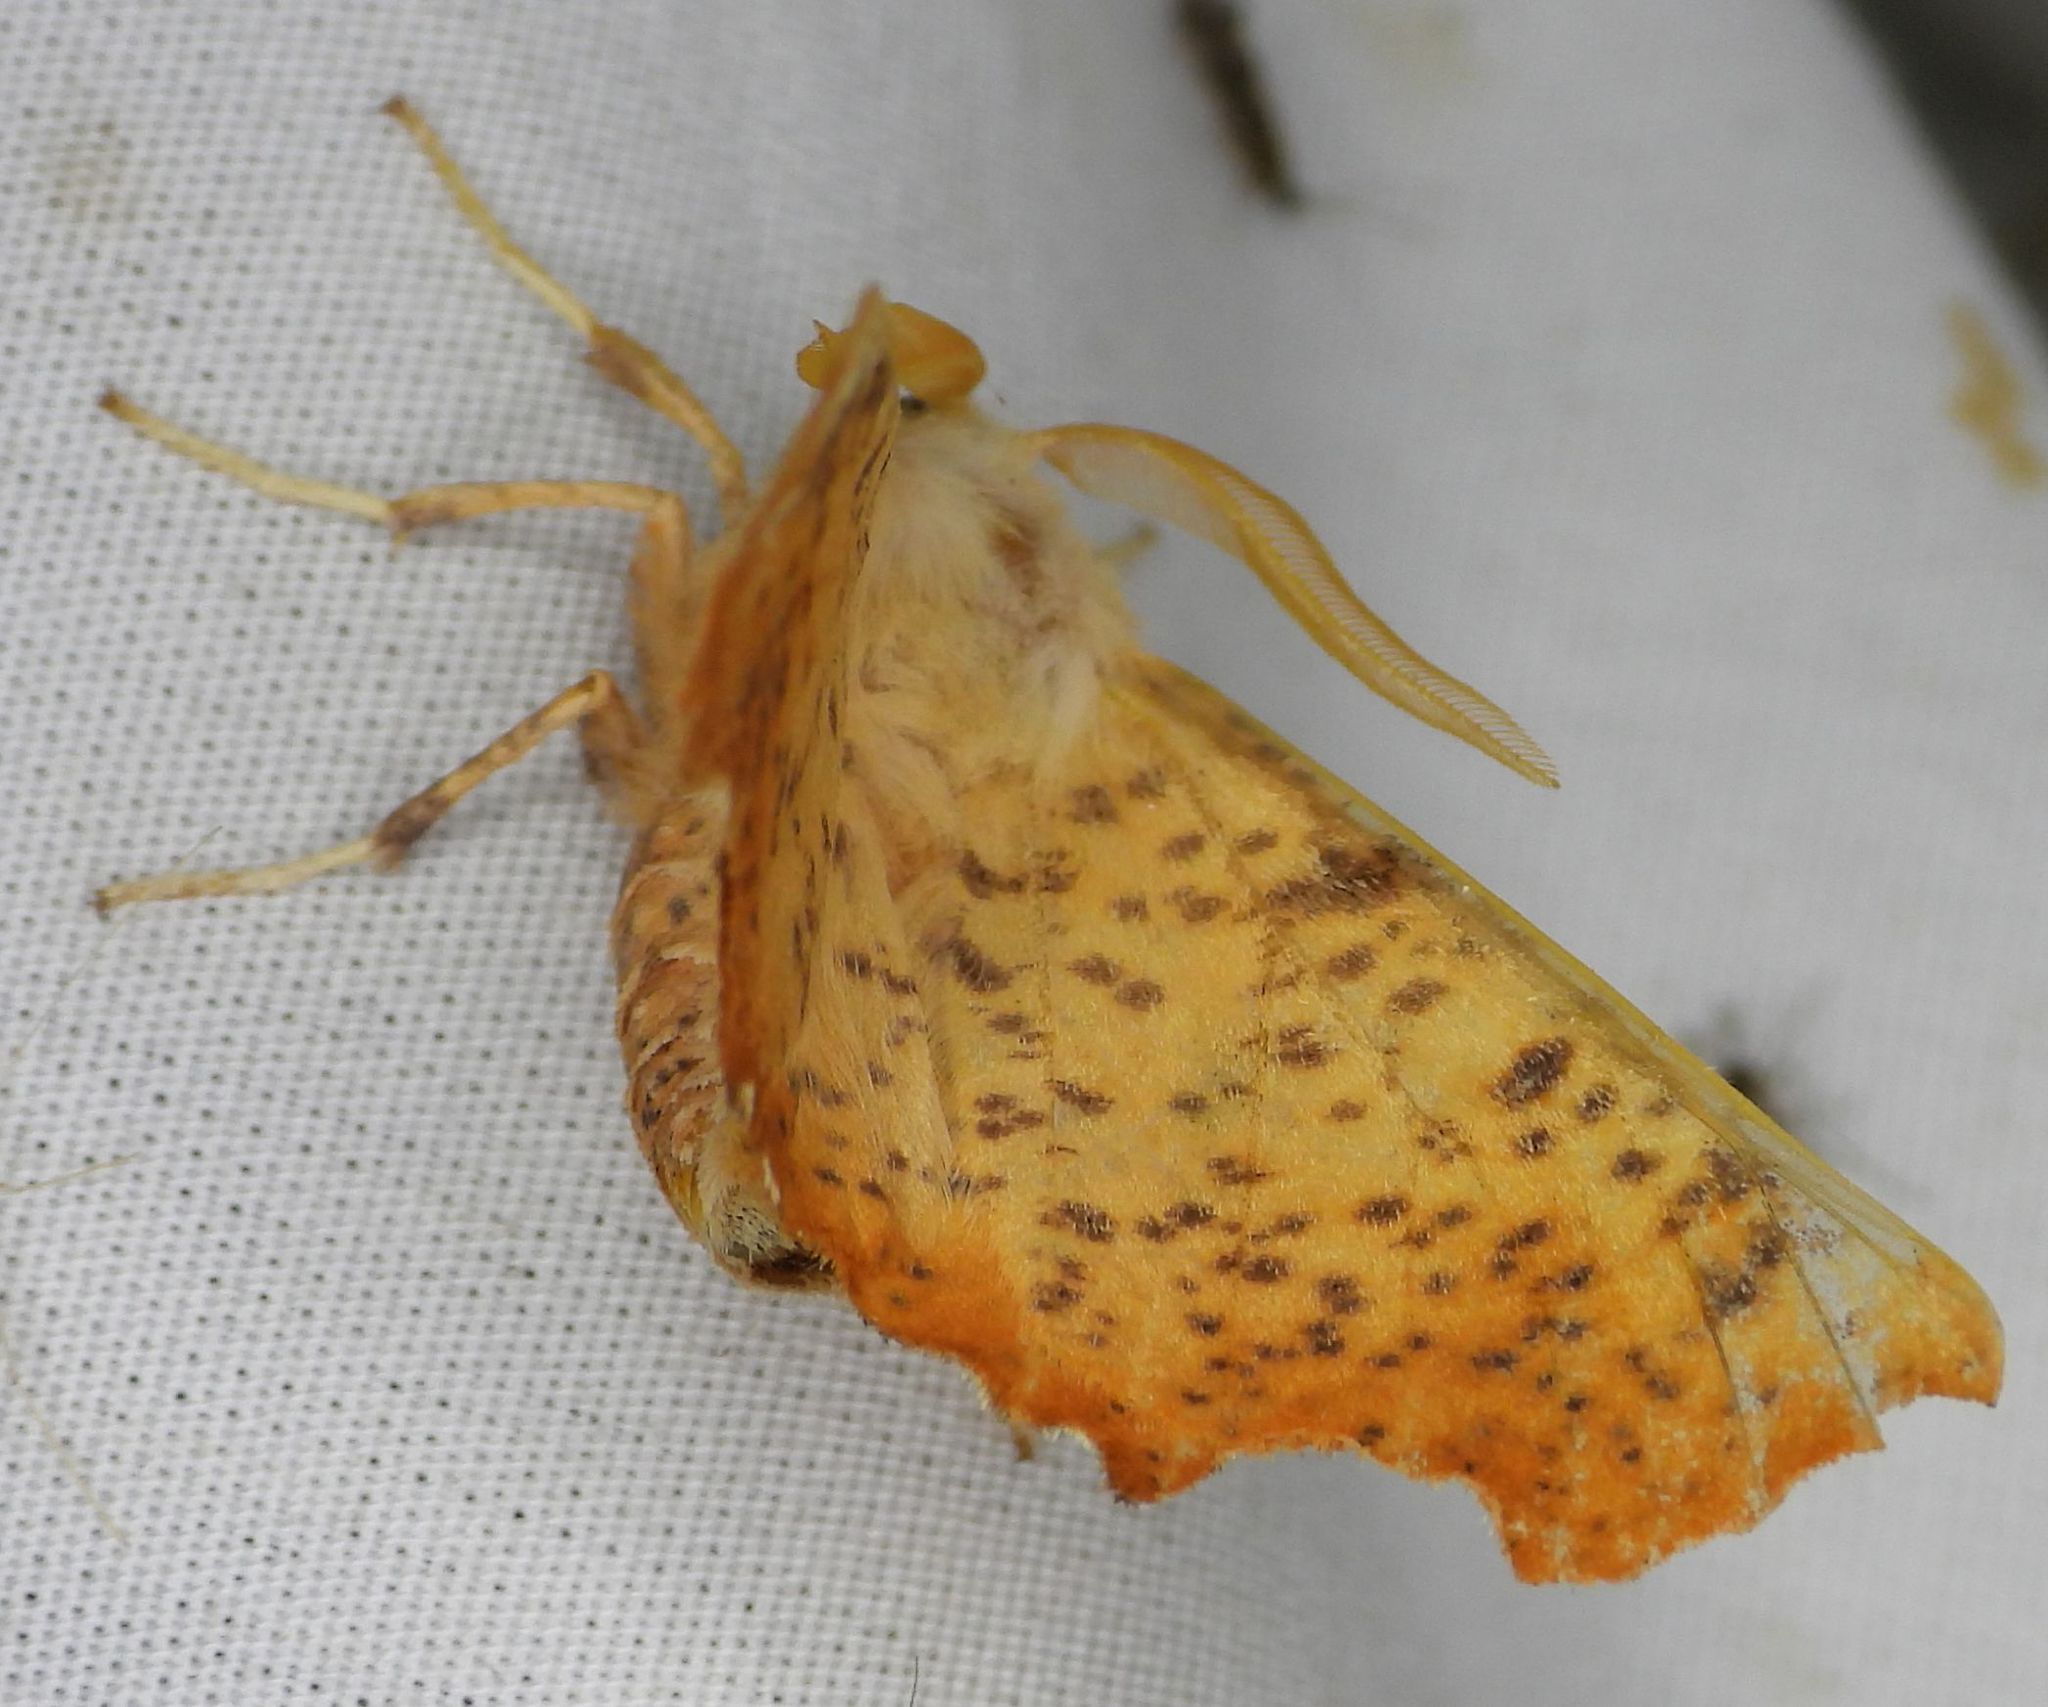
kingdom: Animalia
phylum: Arthropoda
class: Insecta
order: Lepidoptera
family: Geometridae
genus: Ennomos
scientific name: Ennomos magnaria
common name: Maple spanworm
